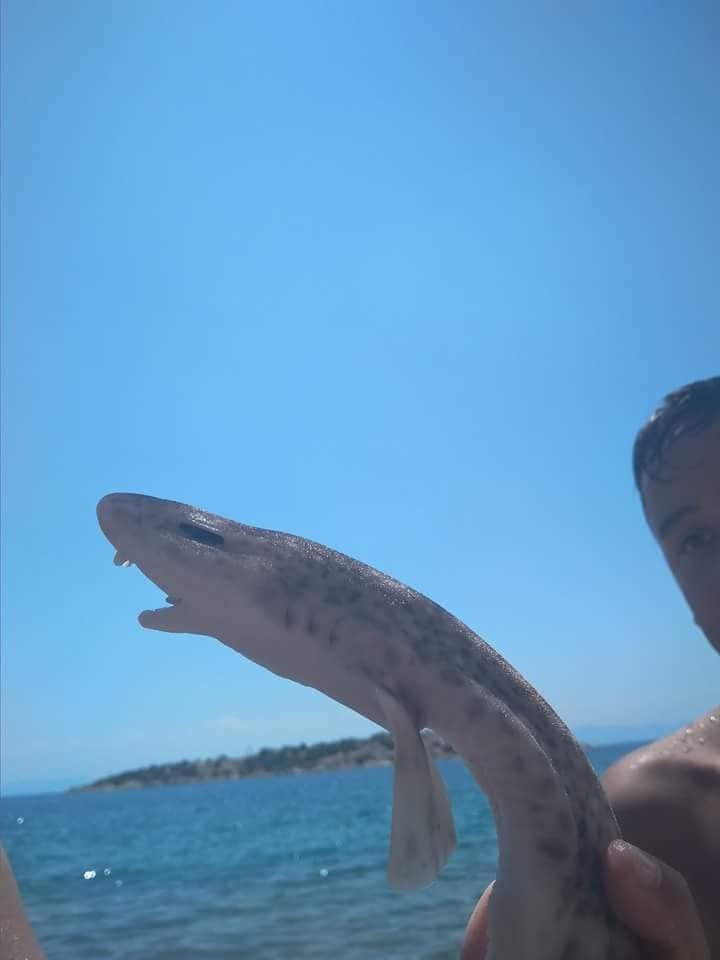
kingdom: Animalia
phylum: Chordata
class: Elasmobranchii
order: Carcharhiniformes
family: Scyliorhinidae
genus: Scyliorhinus
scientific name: Scyliorhinus canicula
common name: Lesser spotted dogfish
